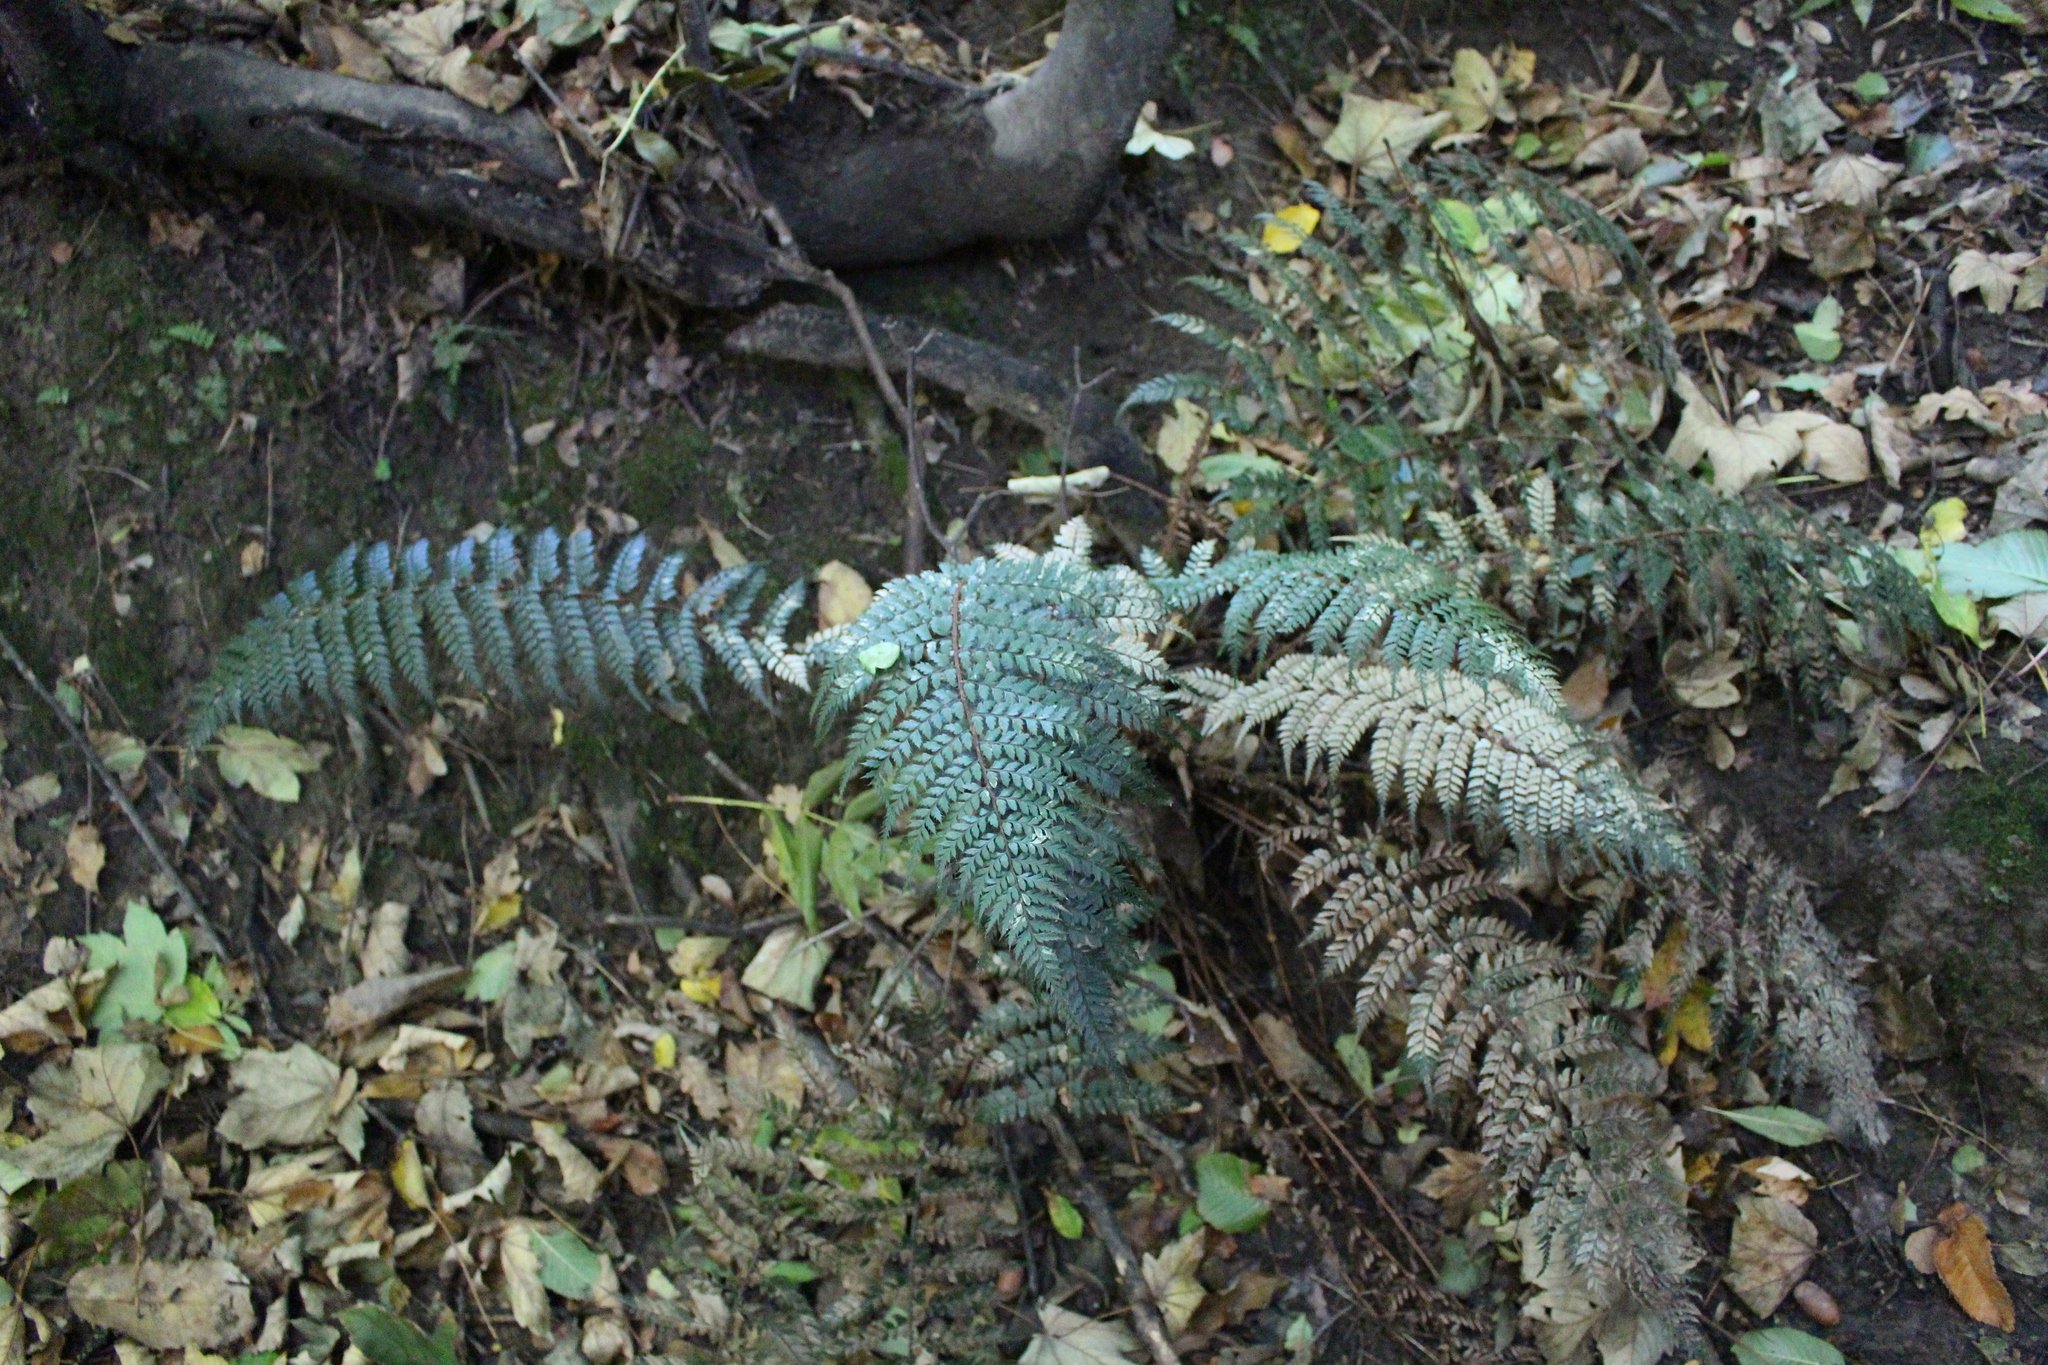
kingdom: Plantae
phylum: Tracheophyta
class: Polypodiopsida
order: Polypodiales
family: Dryopteridaceae
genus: Polystichum
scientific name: Polystichum vestitum
